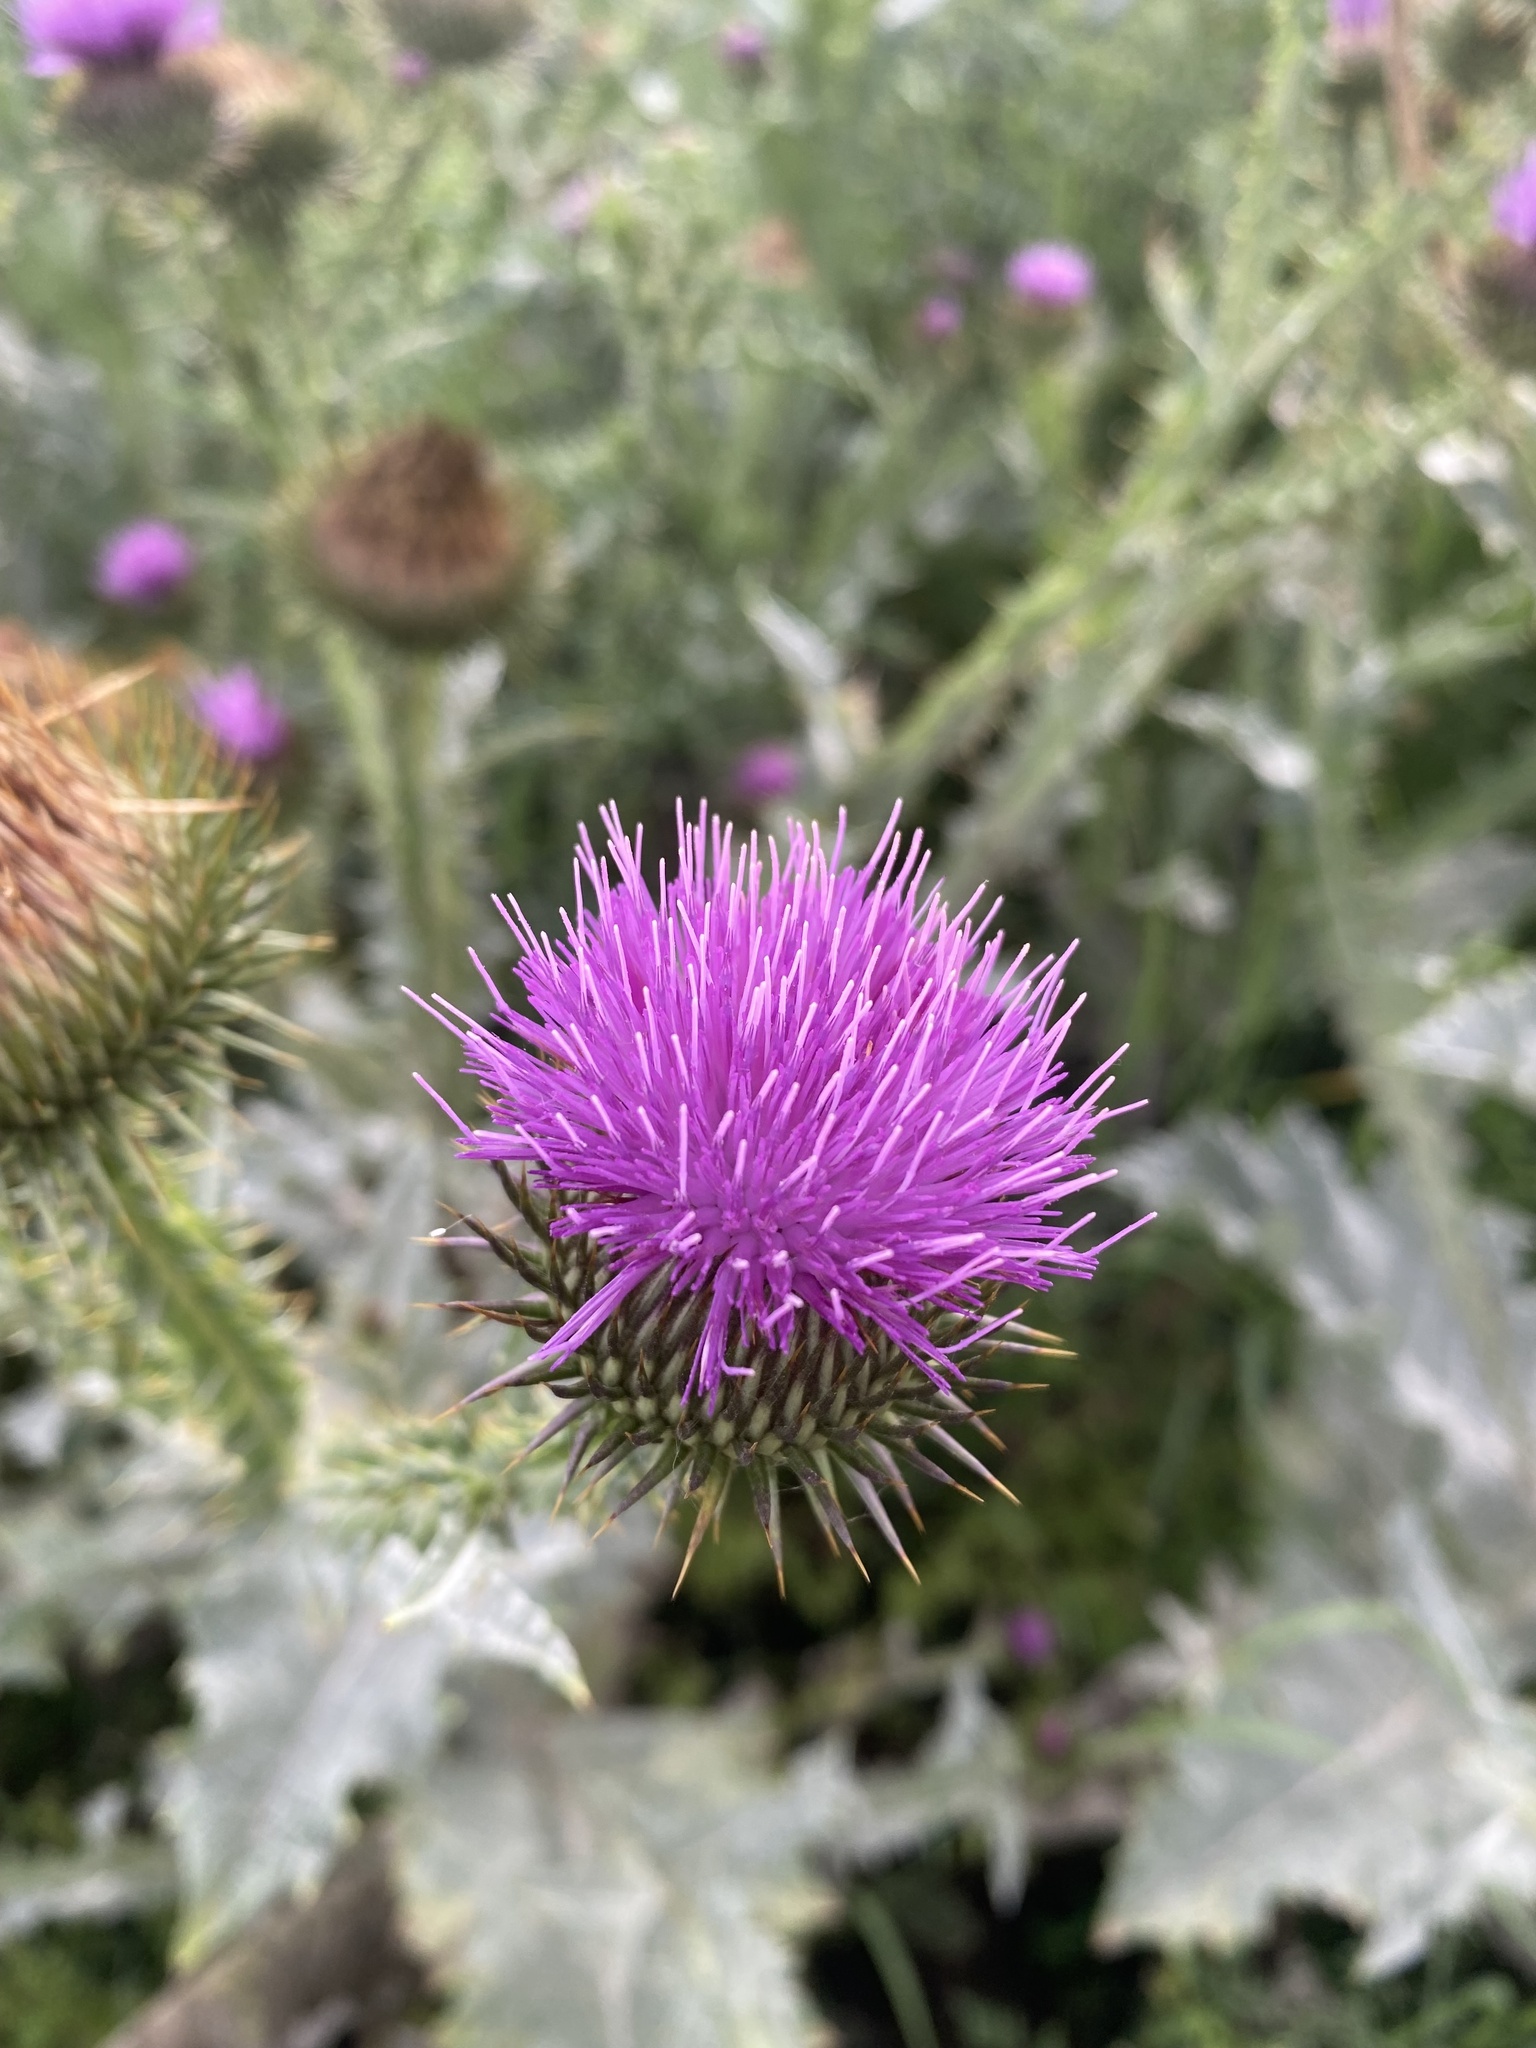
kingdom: Plantae
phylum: Tracheophyta
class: Magnoliopsida
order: Asterales
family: Asteraceae
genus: Onopordum
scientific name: Onopordum acanthium
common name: Scotch thistle
